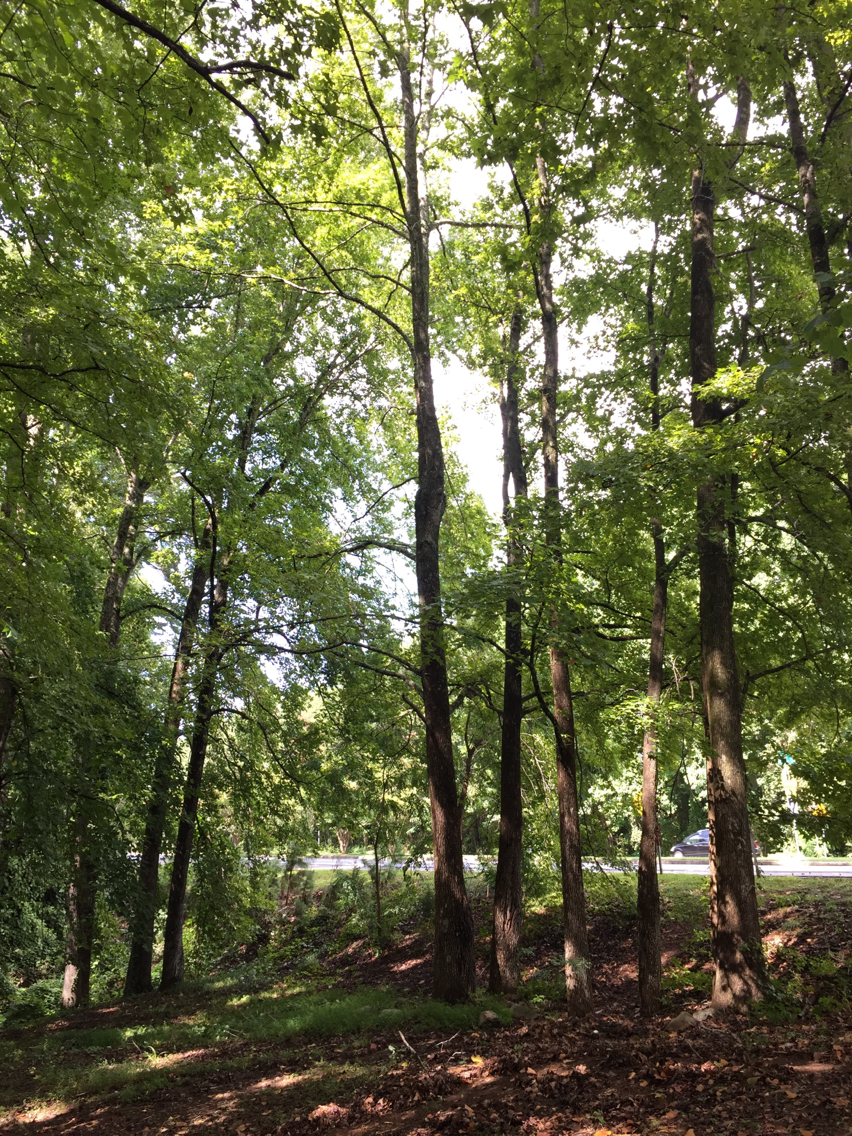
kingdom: Plantae
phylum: Tracheophyta
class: Magnoliopsida
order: Saxifragales
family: Altingiaceae
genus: Liquidambar
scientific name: Liquidambar styraciflua
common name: Sweet gum
